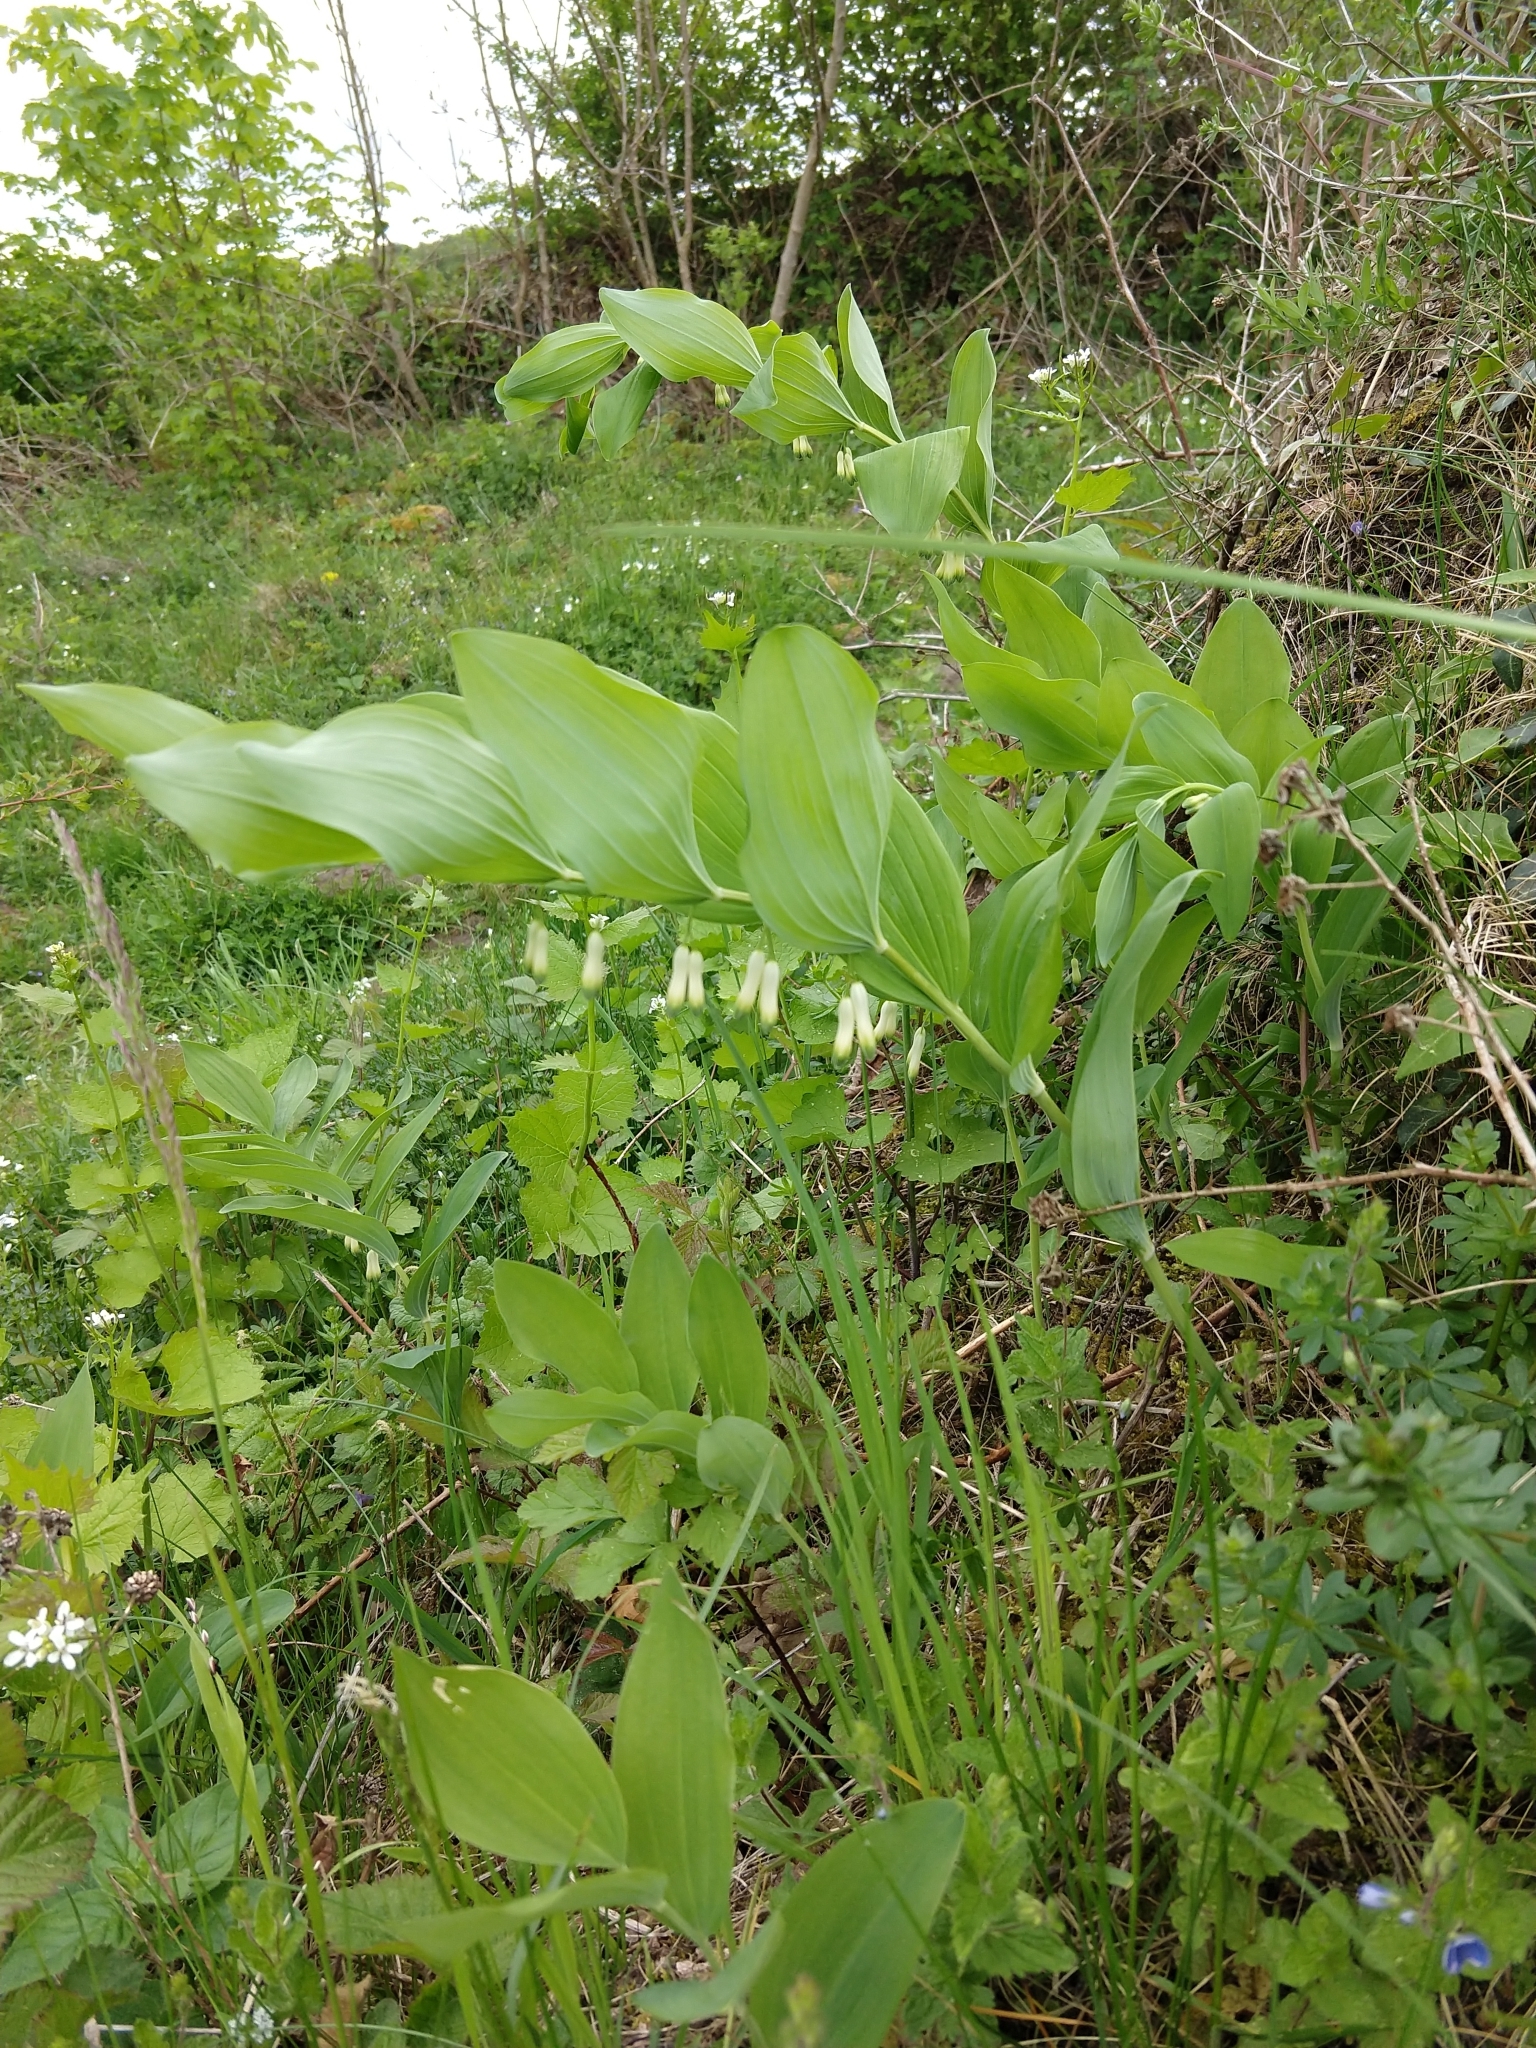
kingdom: Plantae
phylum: Tracheophyta
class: Liliopsida
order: Asparagales
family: Asparagaceae
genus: Polygonatum
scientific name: Polygonatum odoratum
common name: Angular solomon's-seal
